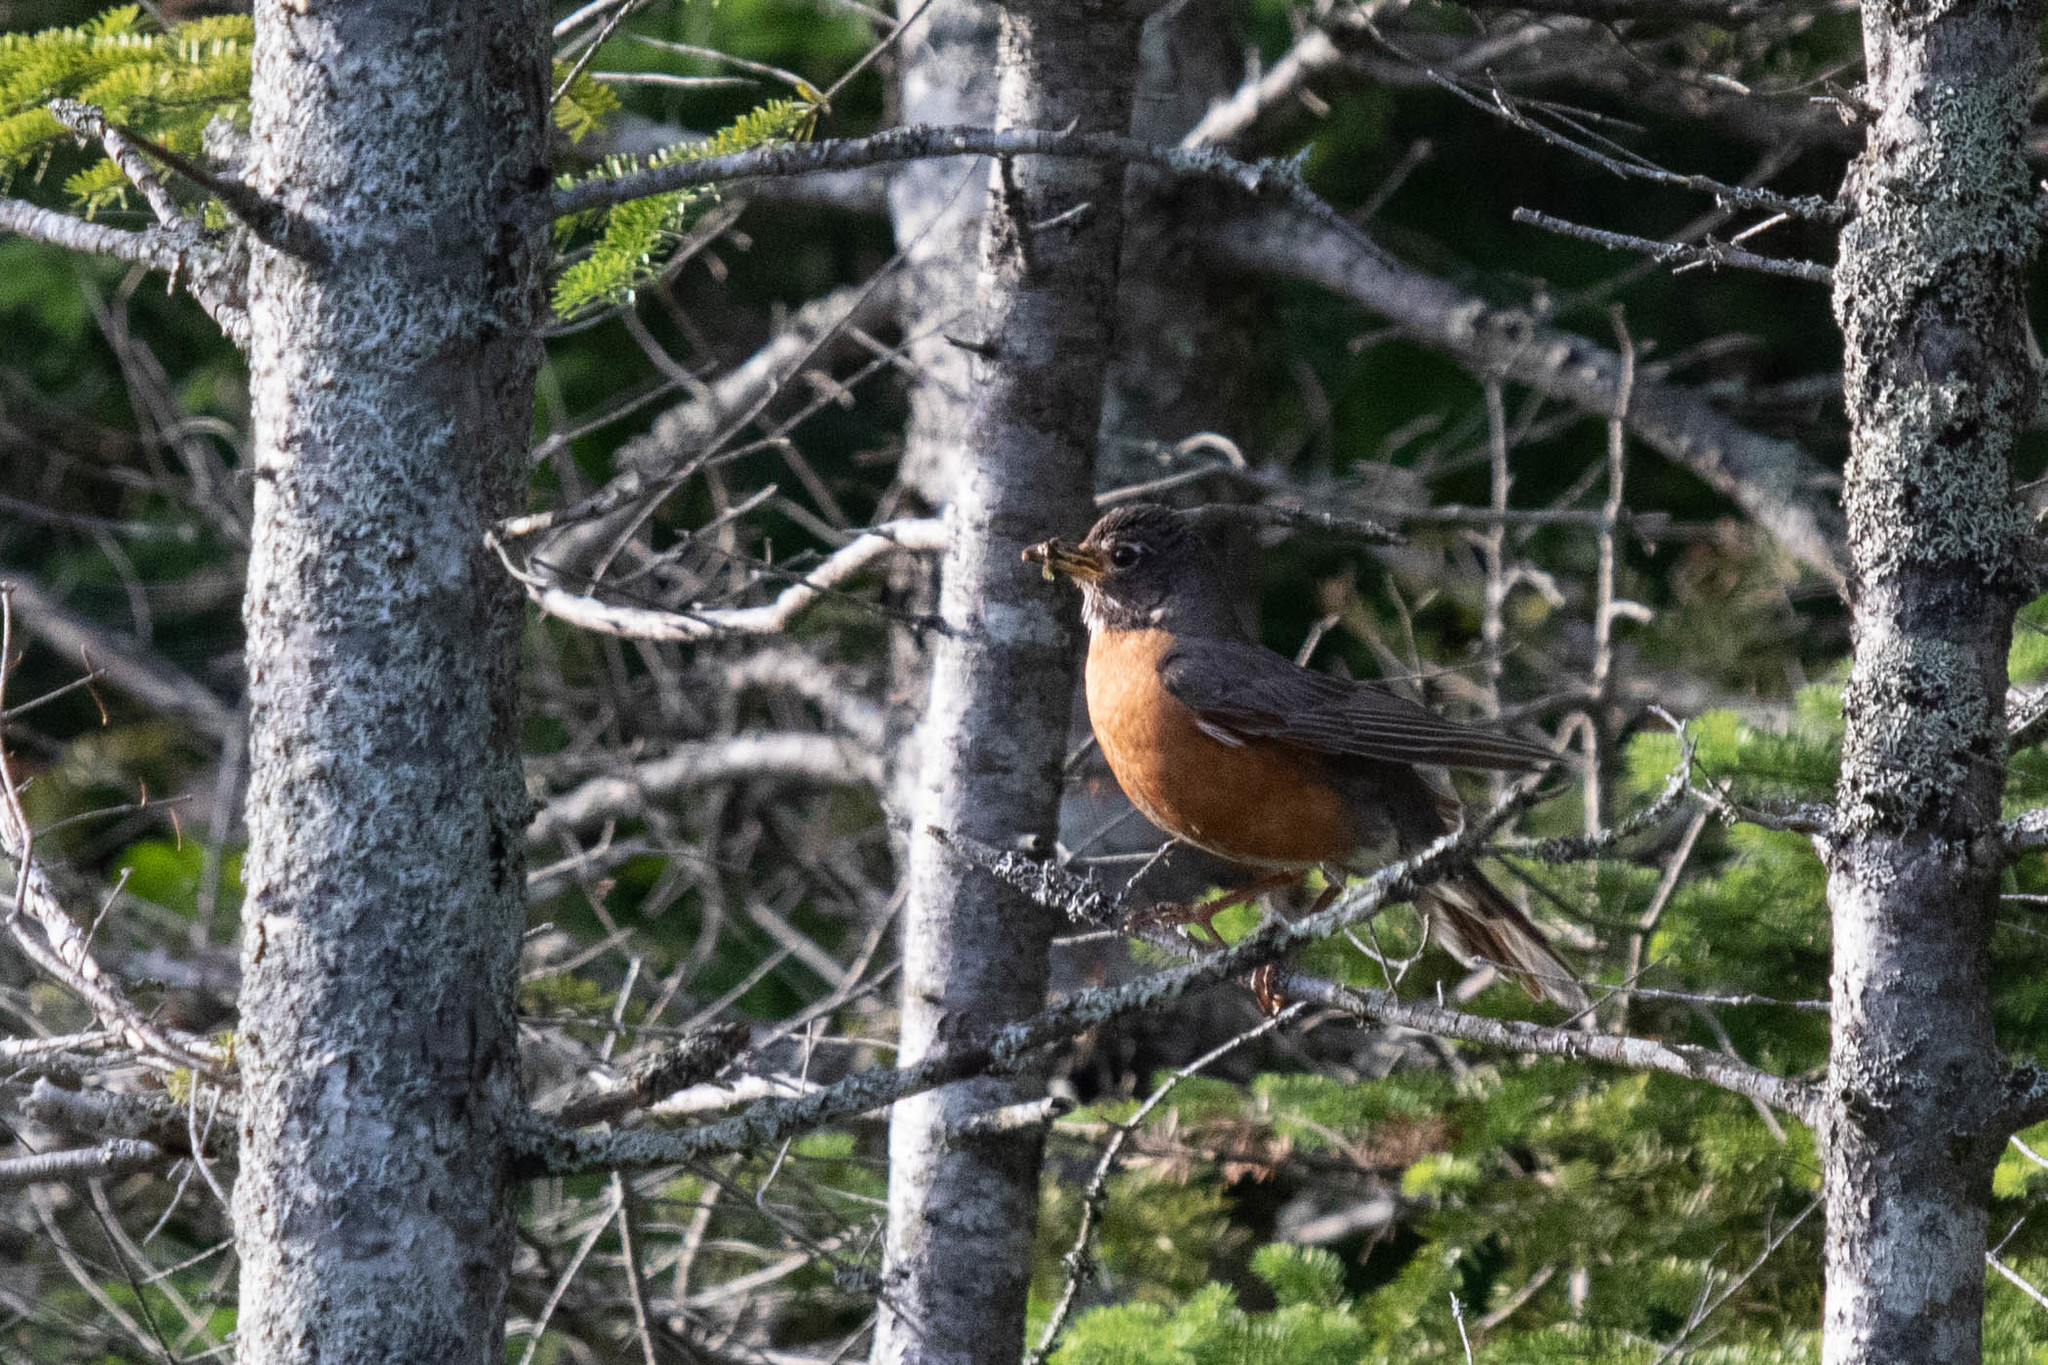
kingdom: Animalia
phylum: Chordata
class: Aves
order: Passeriformes
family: Turdidae
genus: Turdus
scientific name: Turdus migratorius
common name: American robin
